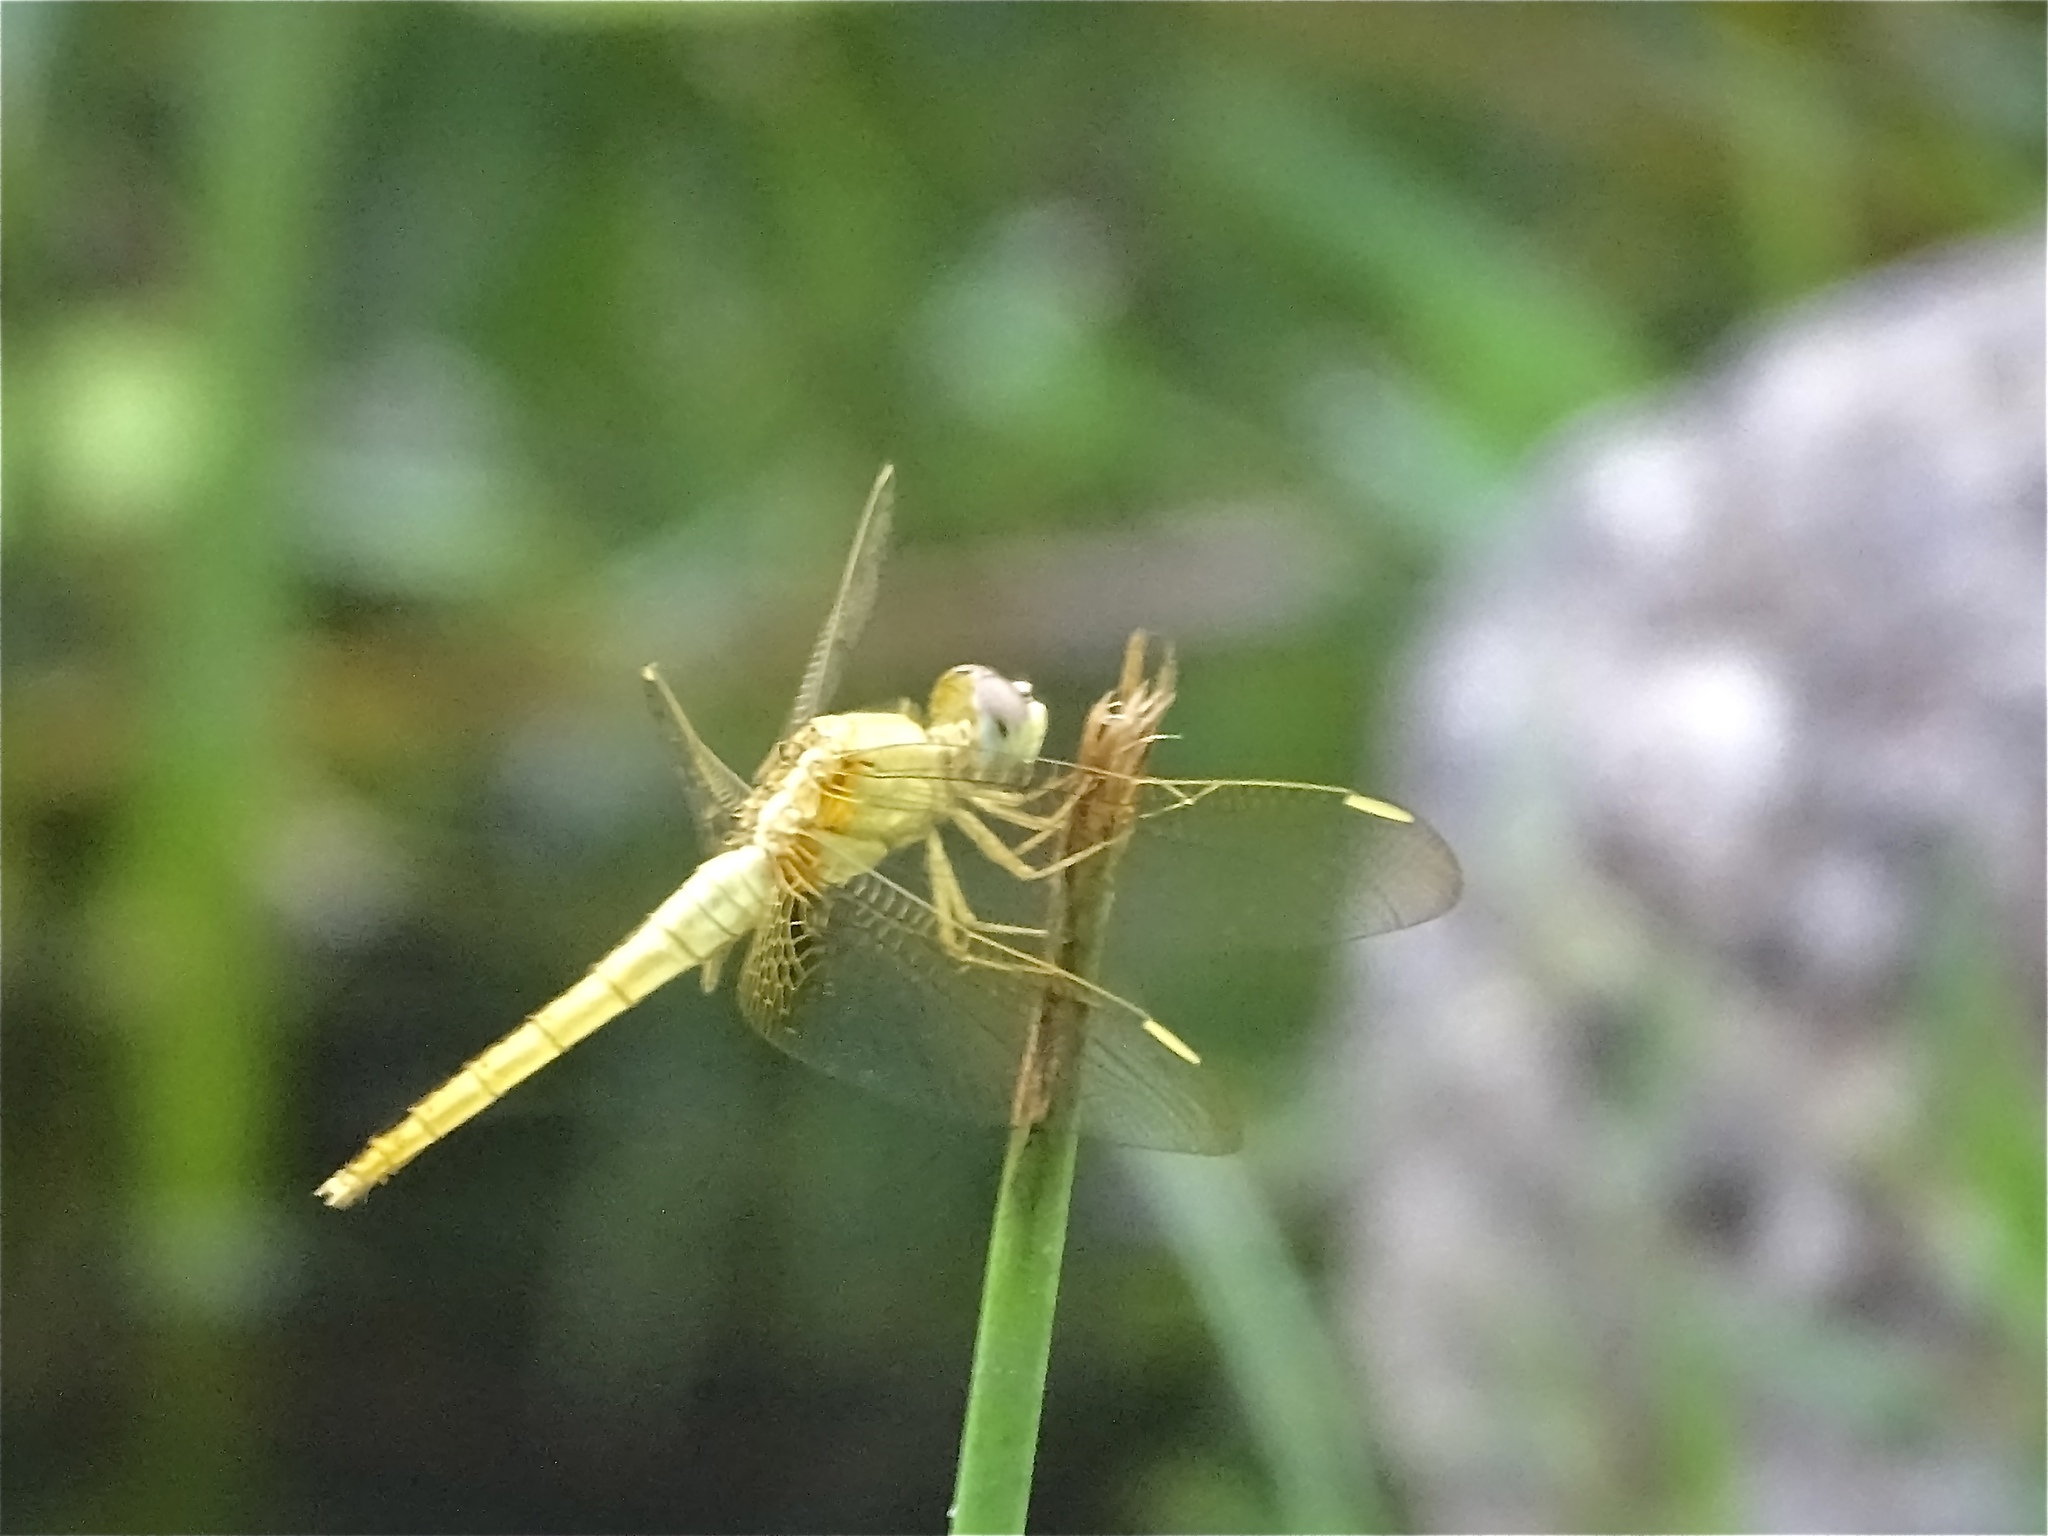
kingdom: Animalia
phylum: Arthropoda
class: Insecta
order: Odonata
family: Libellulidae
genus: Crocothemis
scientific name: Crocothemis servilia
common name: Scarlet skimmer
